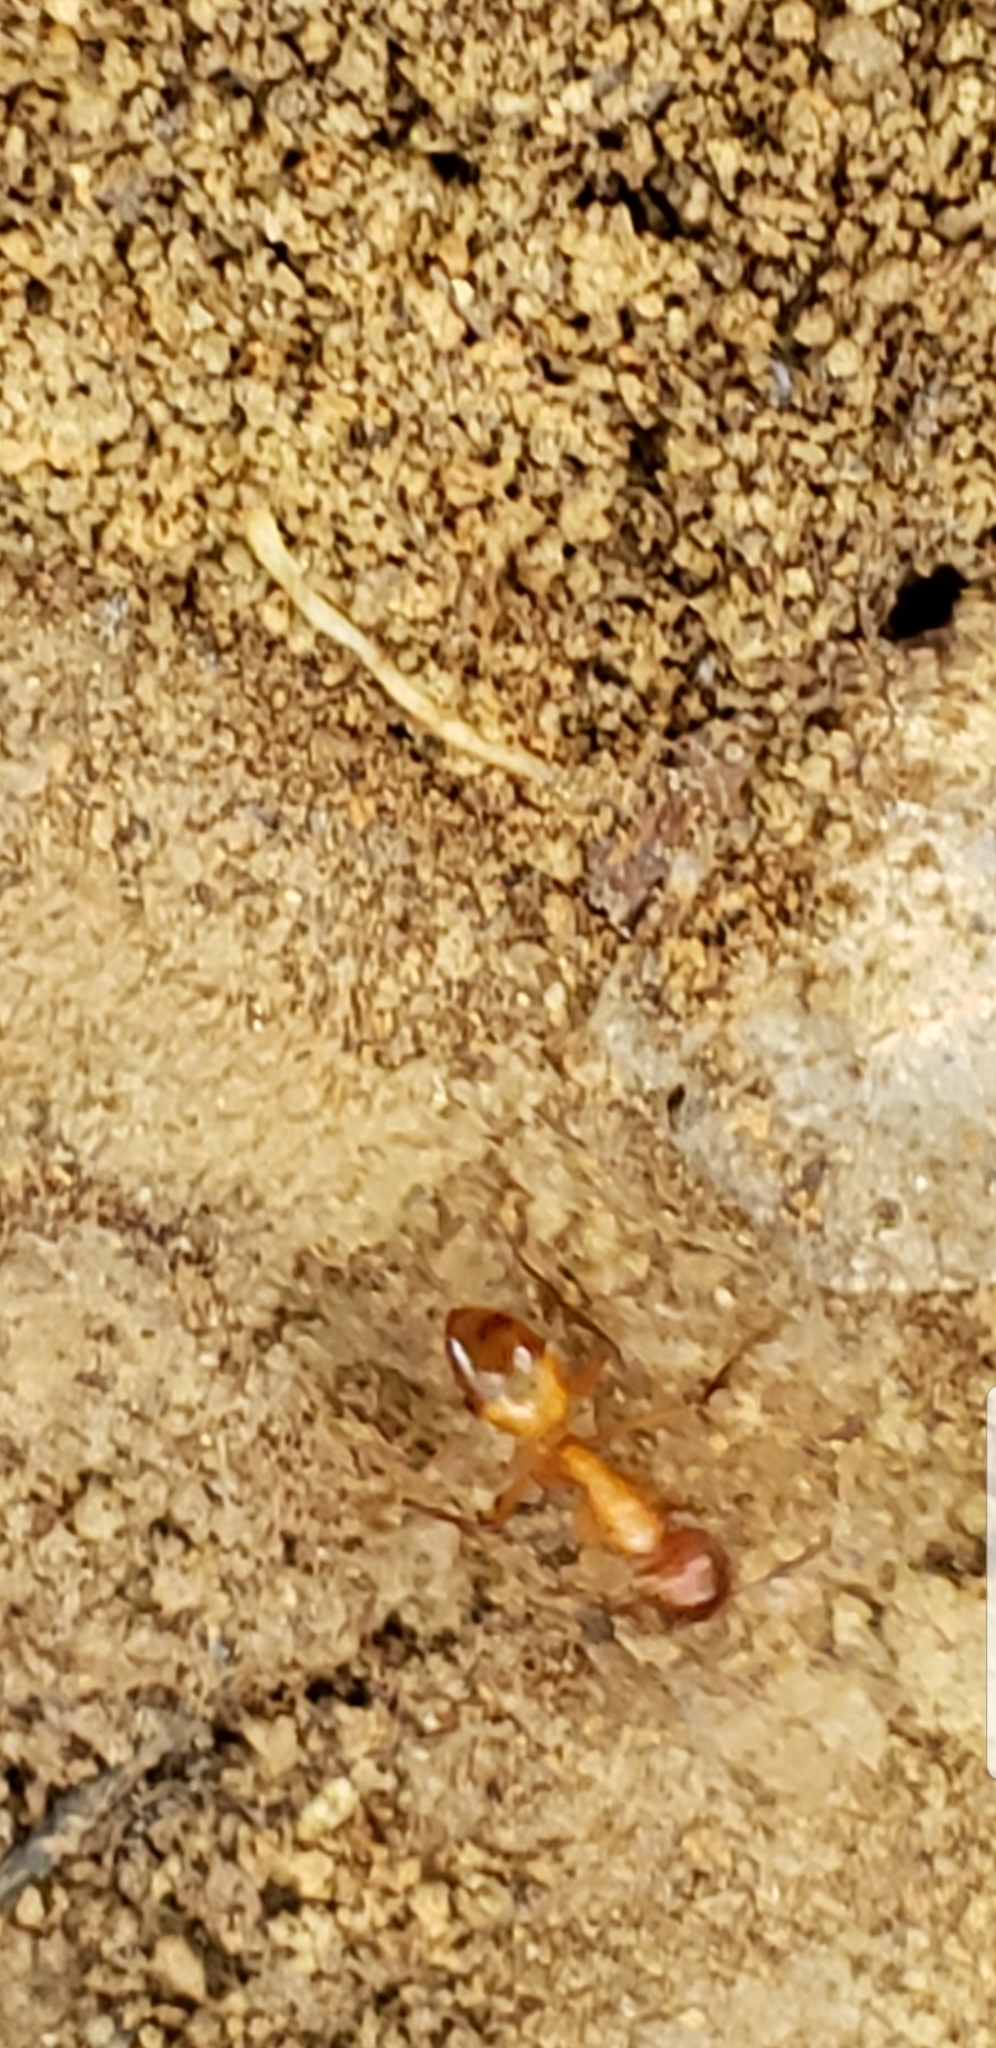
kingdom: Animalia
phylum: Arthropoda
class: Insecta
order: Hymenoptera
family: Formicidae
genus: Camponotus
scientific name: Camponotus castaneus
